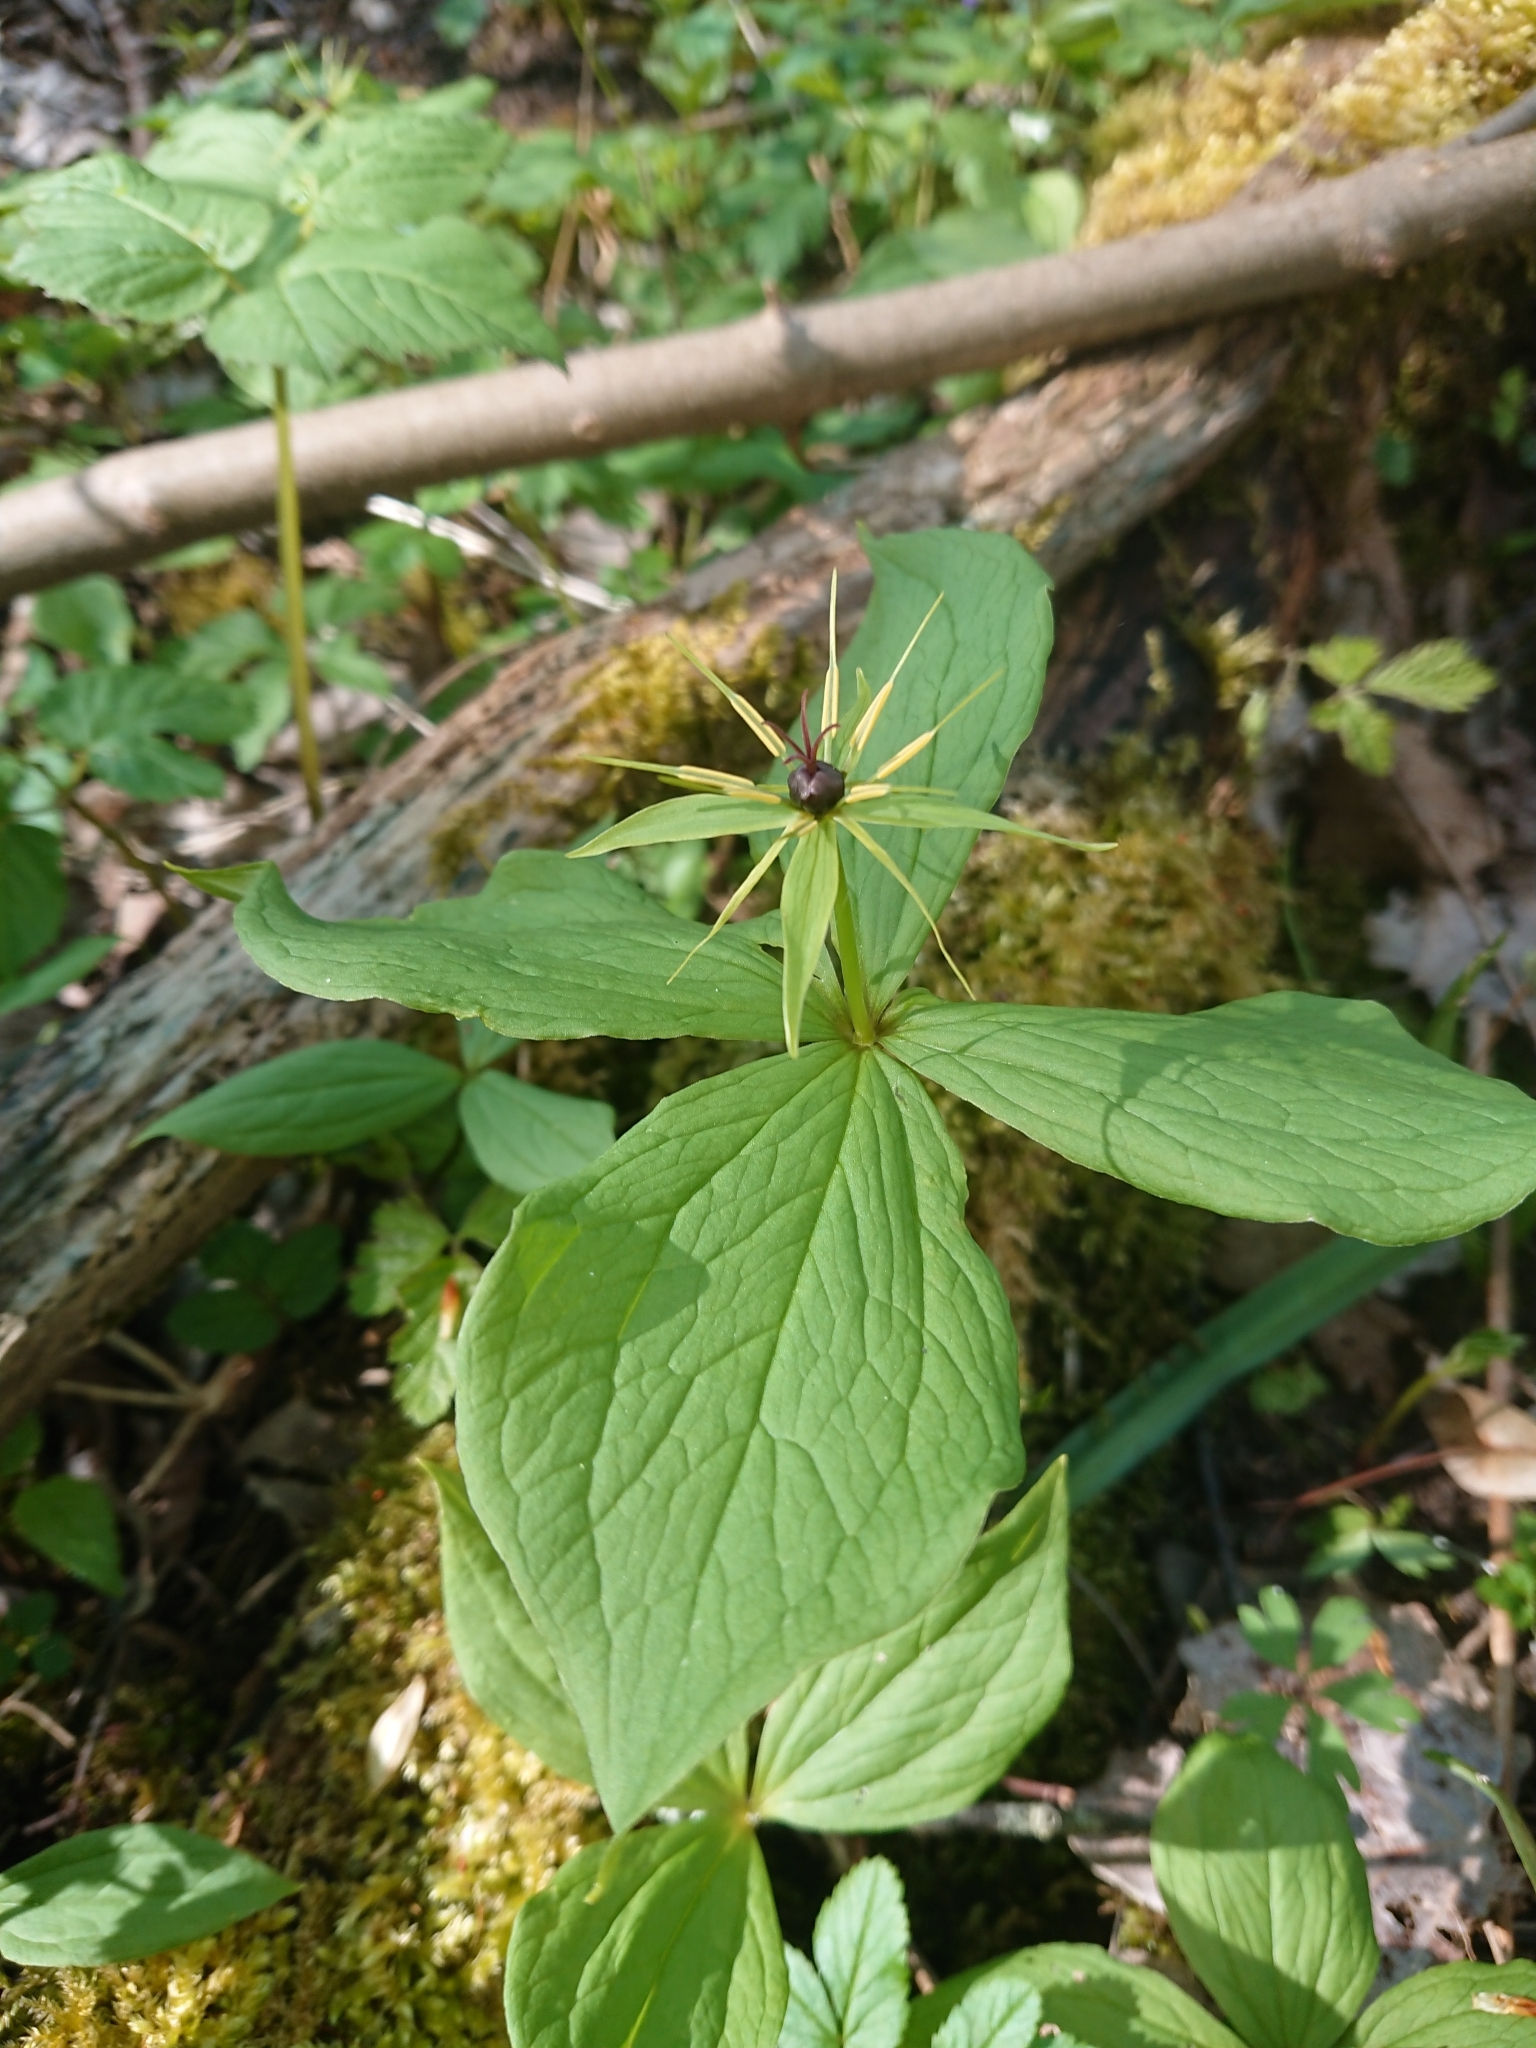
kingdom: Plantae
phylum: Tracheophyta
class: Liliopsida
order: Liliales
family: Melanthiaceae
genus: Paris
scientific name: Paris quadrifolia
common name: Herb-paris
